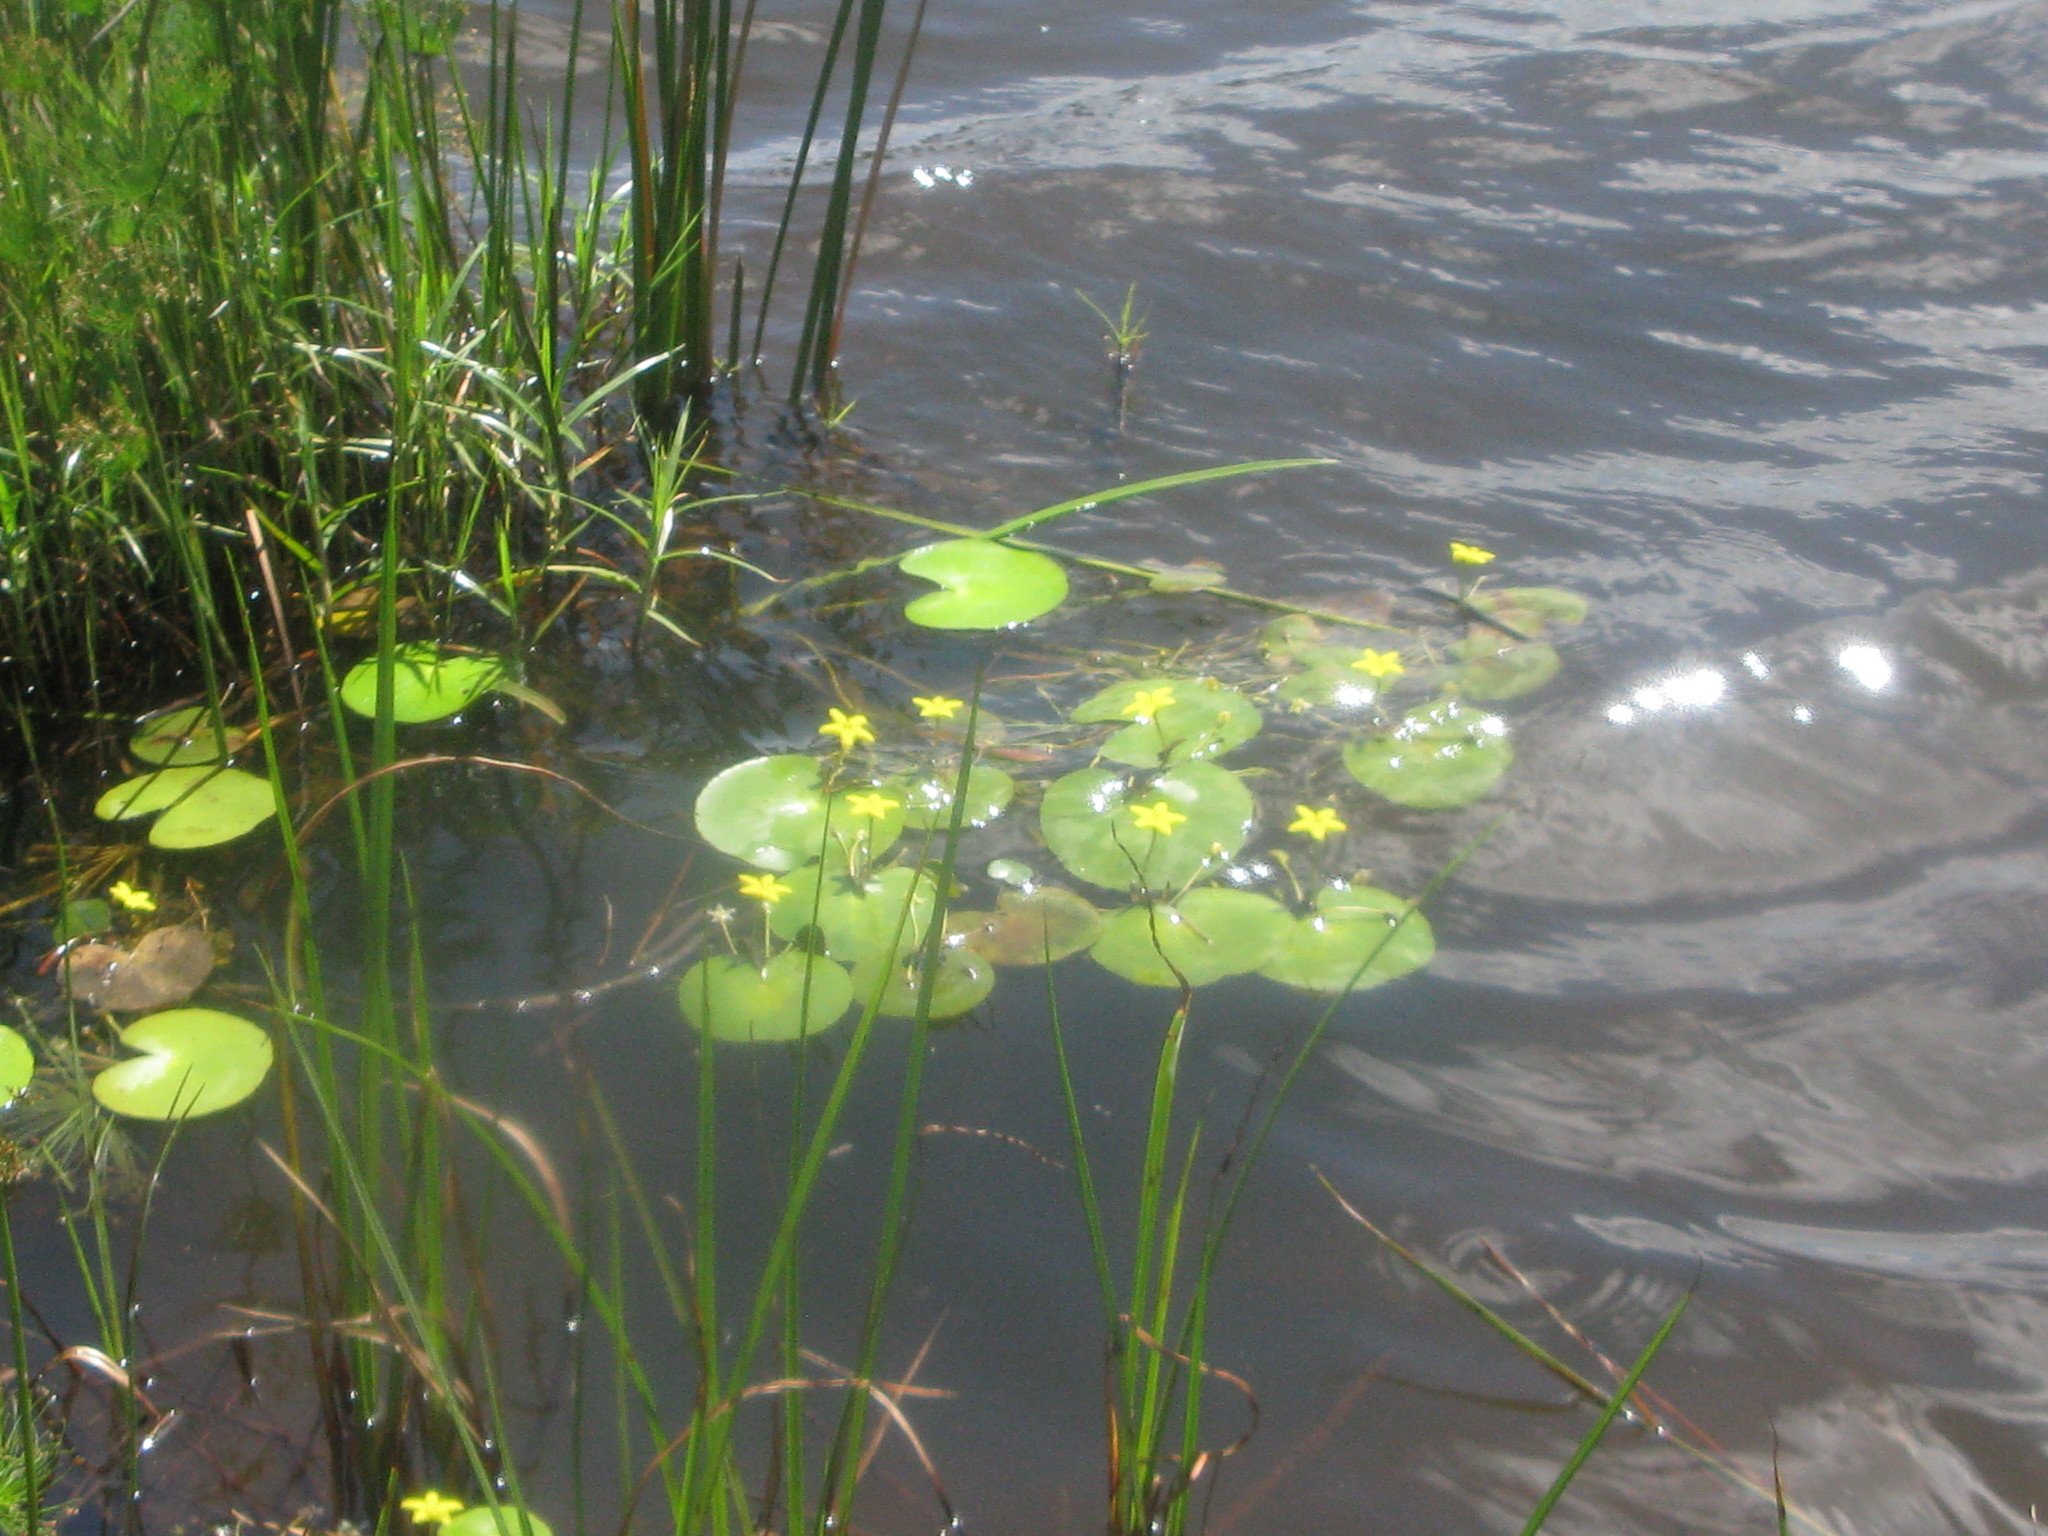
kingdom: Plantae
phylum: Tracheophyta
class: Magnoliopsida
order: Asterales
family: Menyanthaceae
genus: Nymphoides
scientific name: Nymphoides thunbergiana
